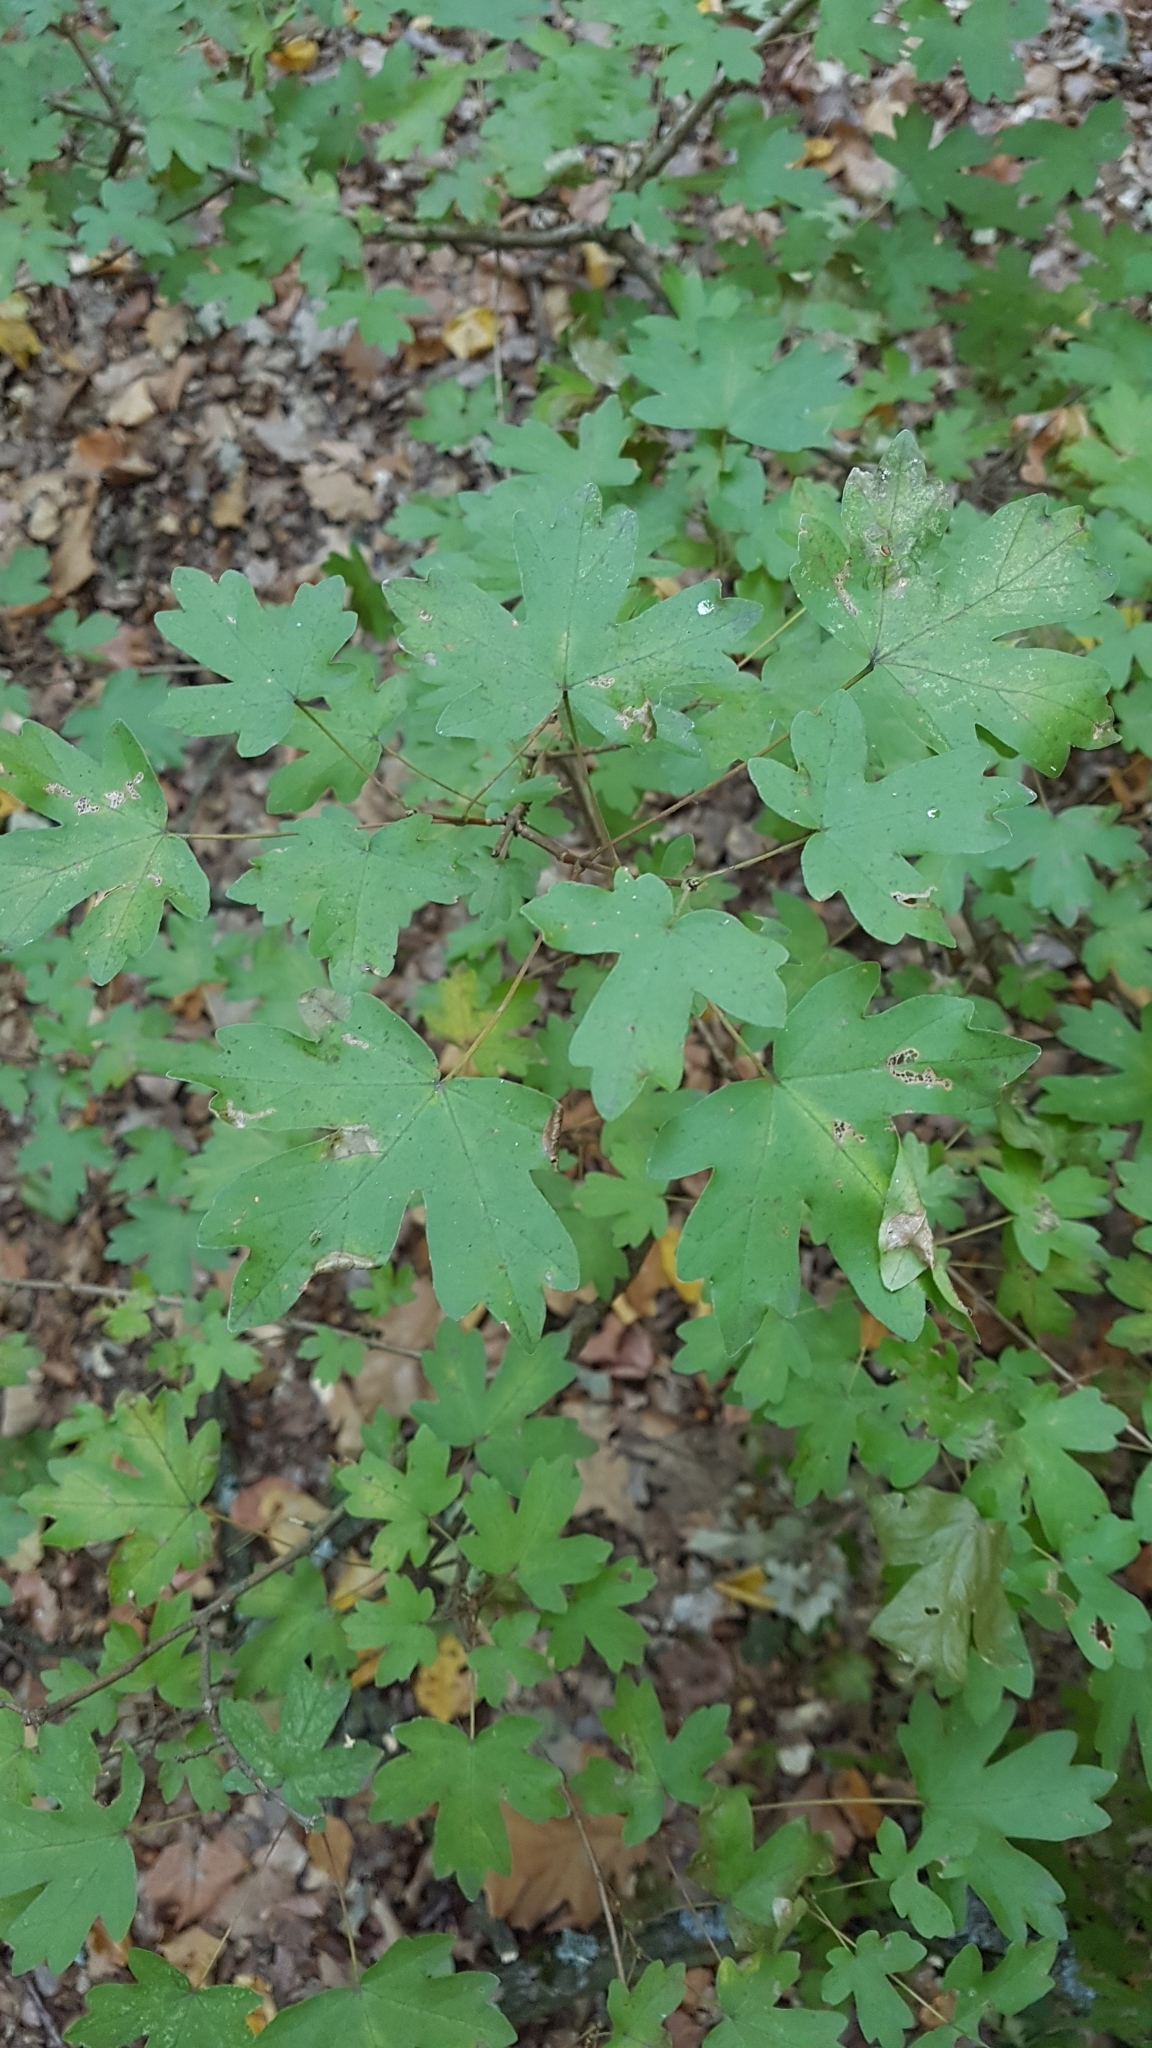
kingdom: Plantae
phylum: Tracheophyta
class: Magnoliopsida
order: Sapindales
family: Sapindaceae
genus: Acer
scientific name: Acer campestre
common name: Field maple
